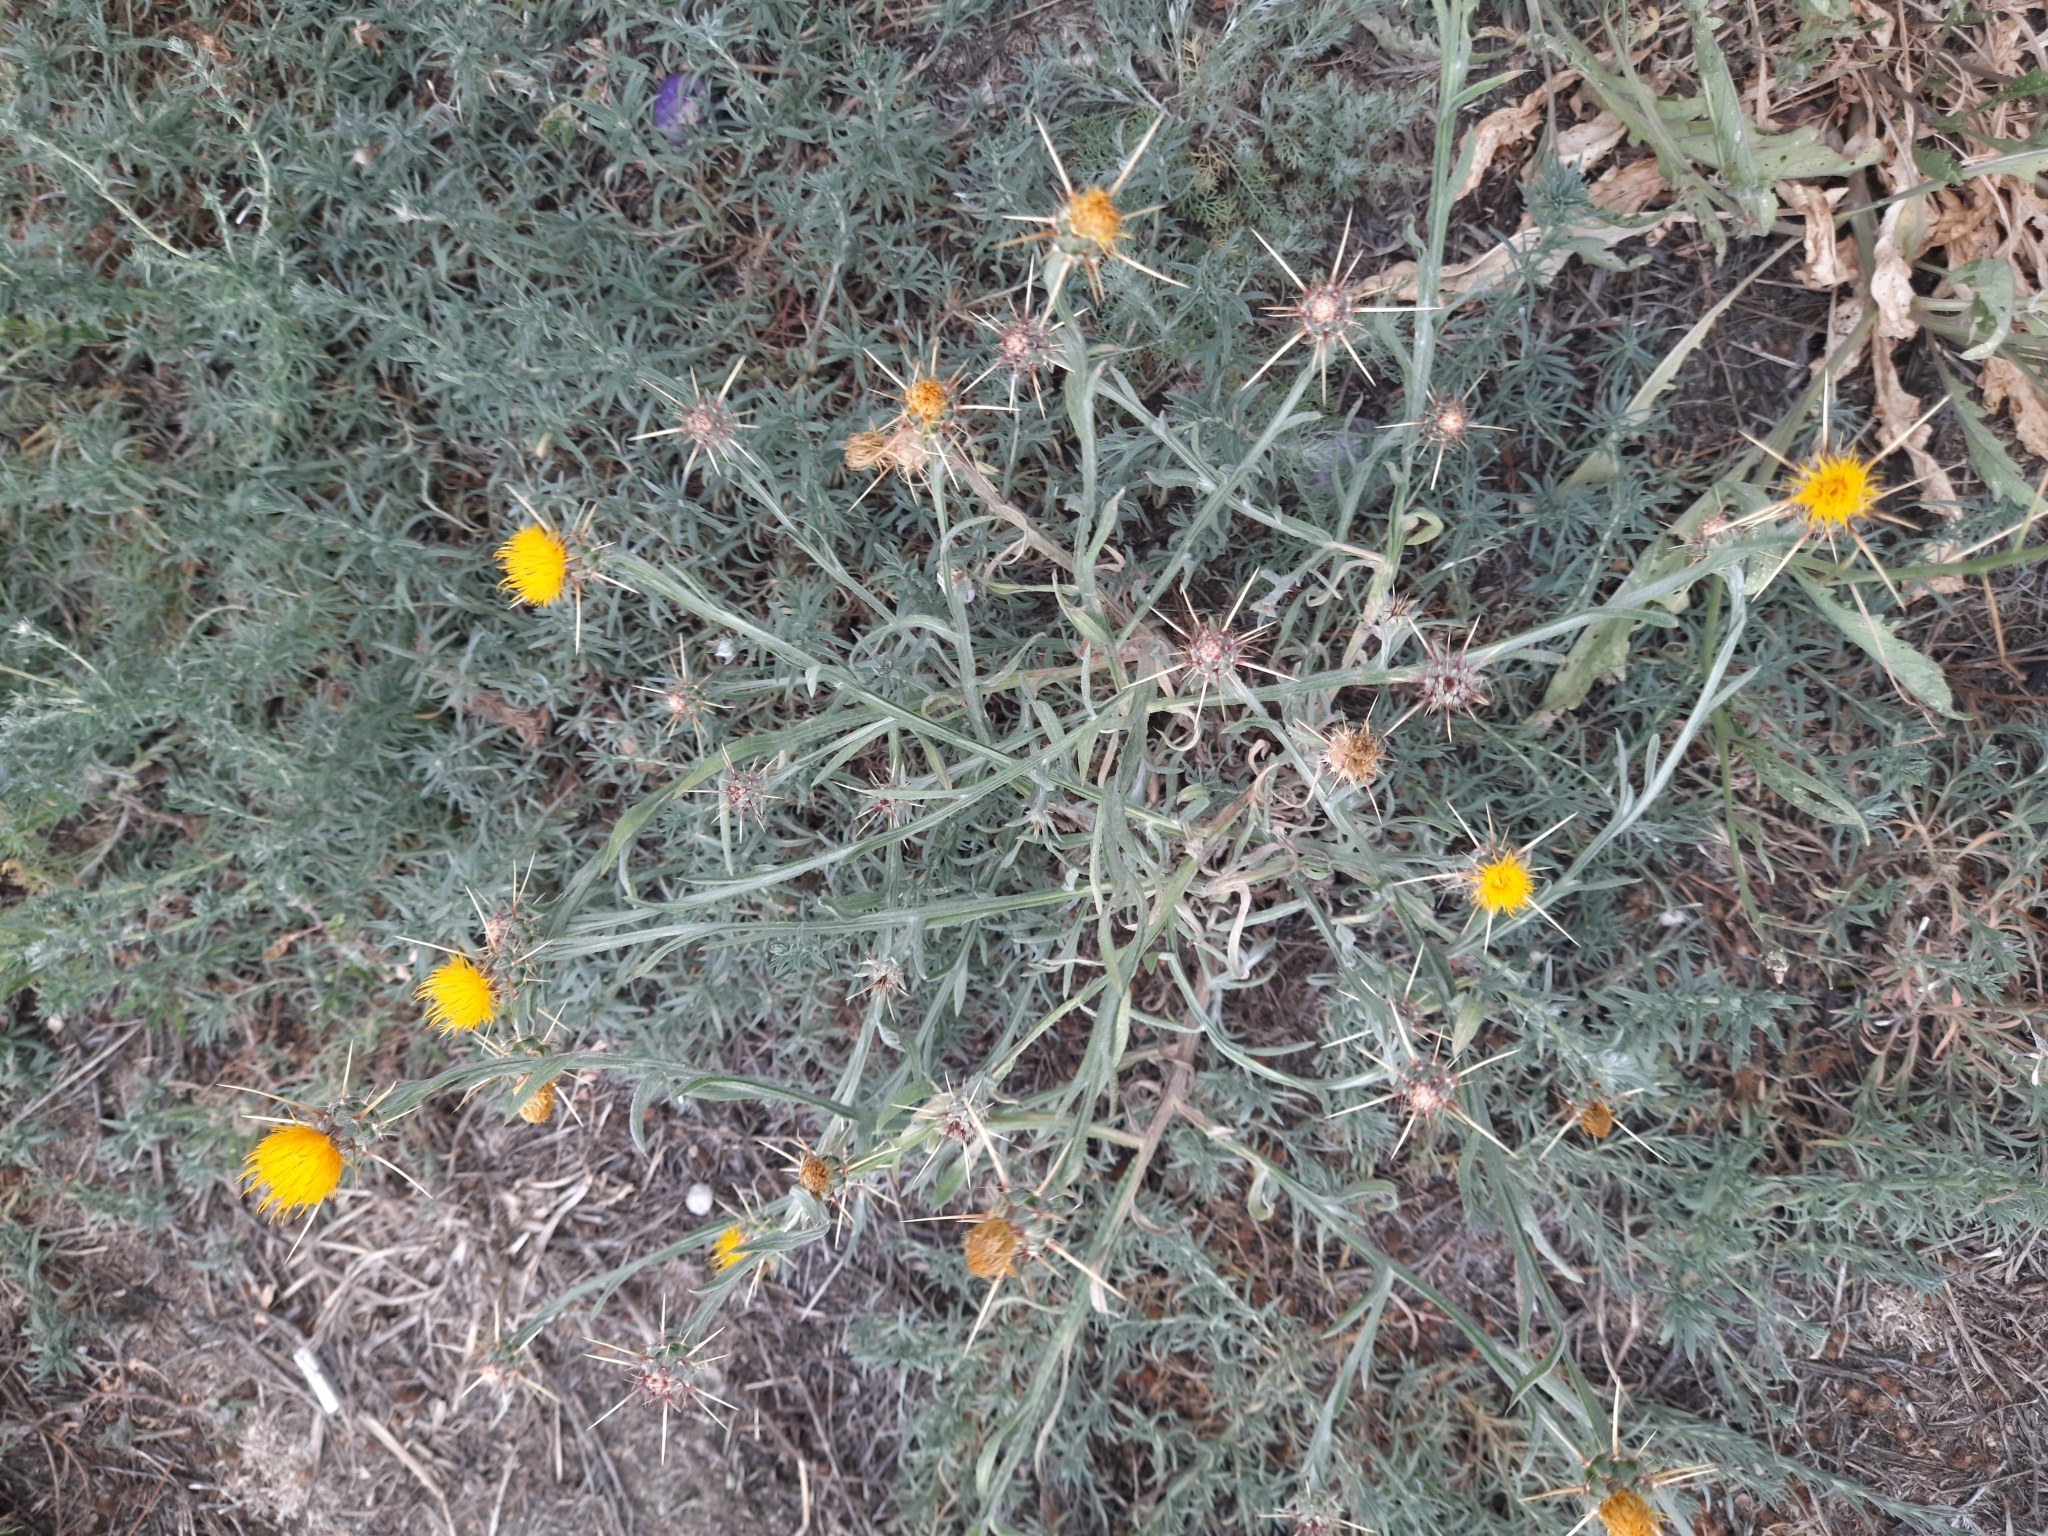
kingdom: Plantae
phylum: Tracheophyta
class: Magnoliopsida
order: Asterales
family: Asteraceae
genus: Centaurea
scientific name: Centaurea solstitialis
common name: Yellow star-thistle
